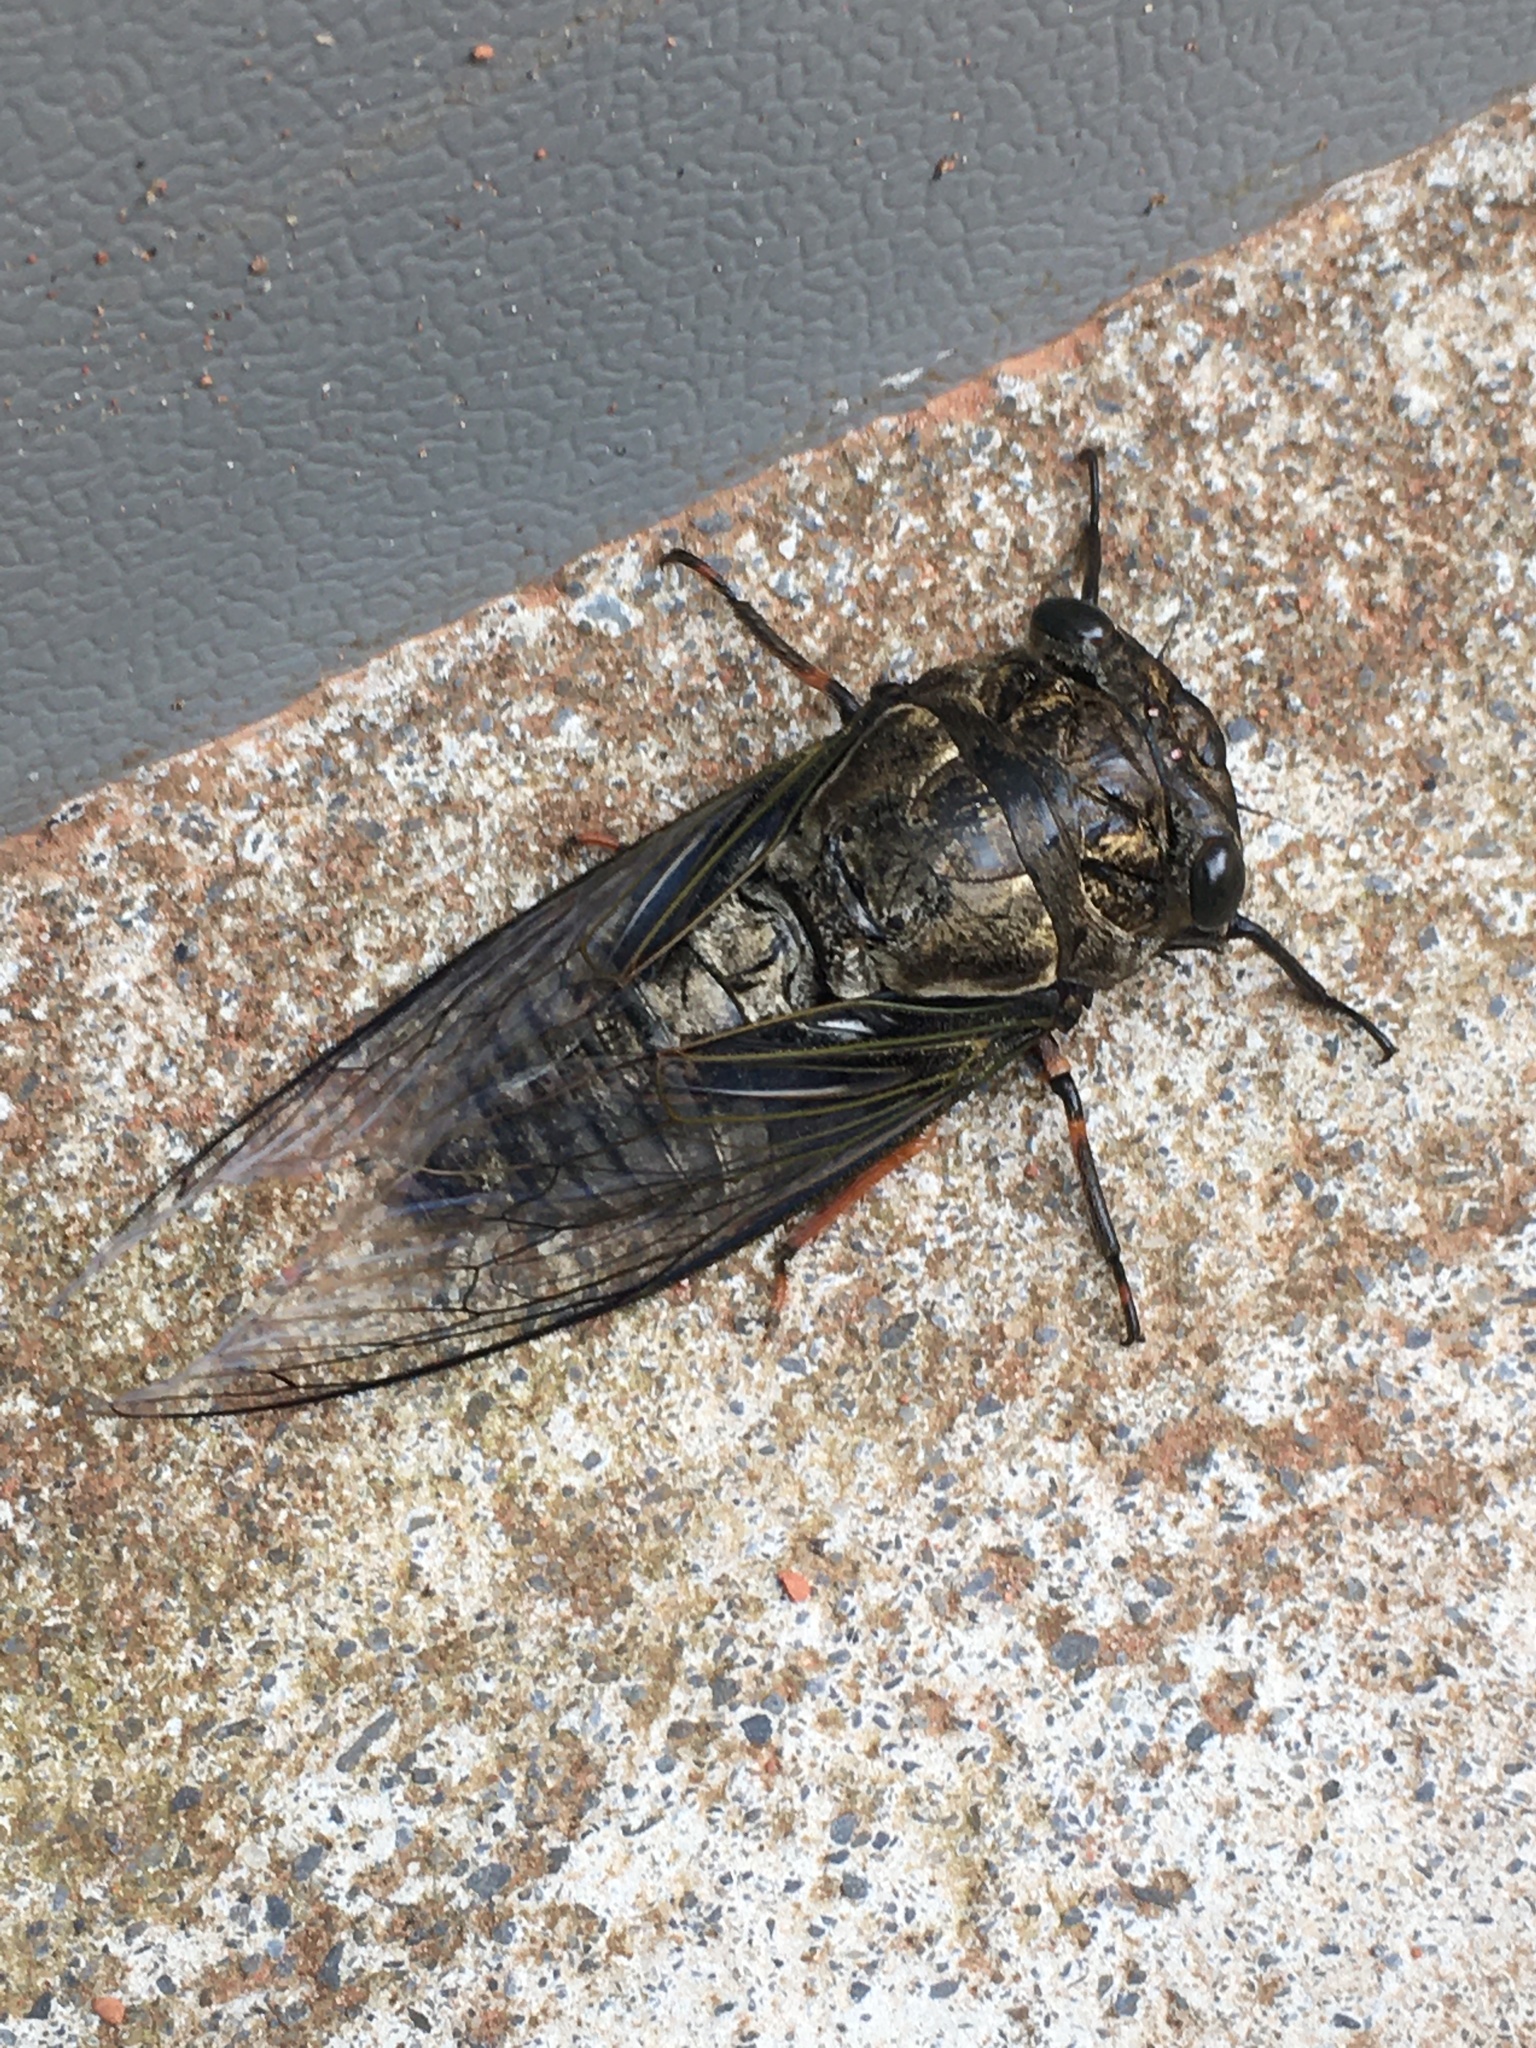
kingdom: Animalia
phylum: Arthropoda
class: Insecta
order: Hemiptera
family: Cicadidae
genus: Cryptotympana
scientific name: Cryptotympana takasagona
